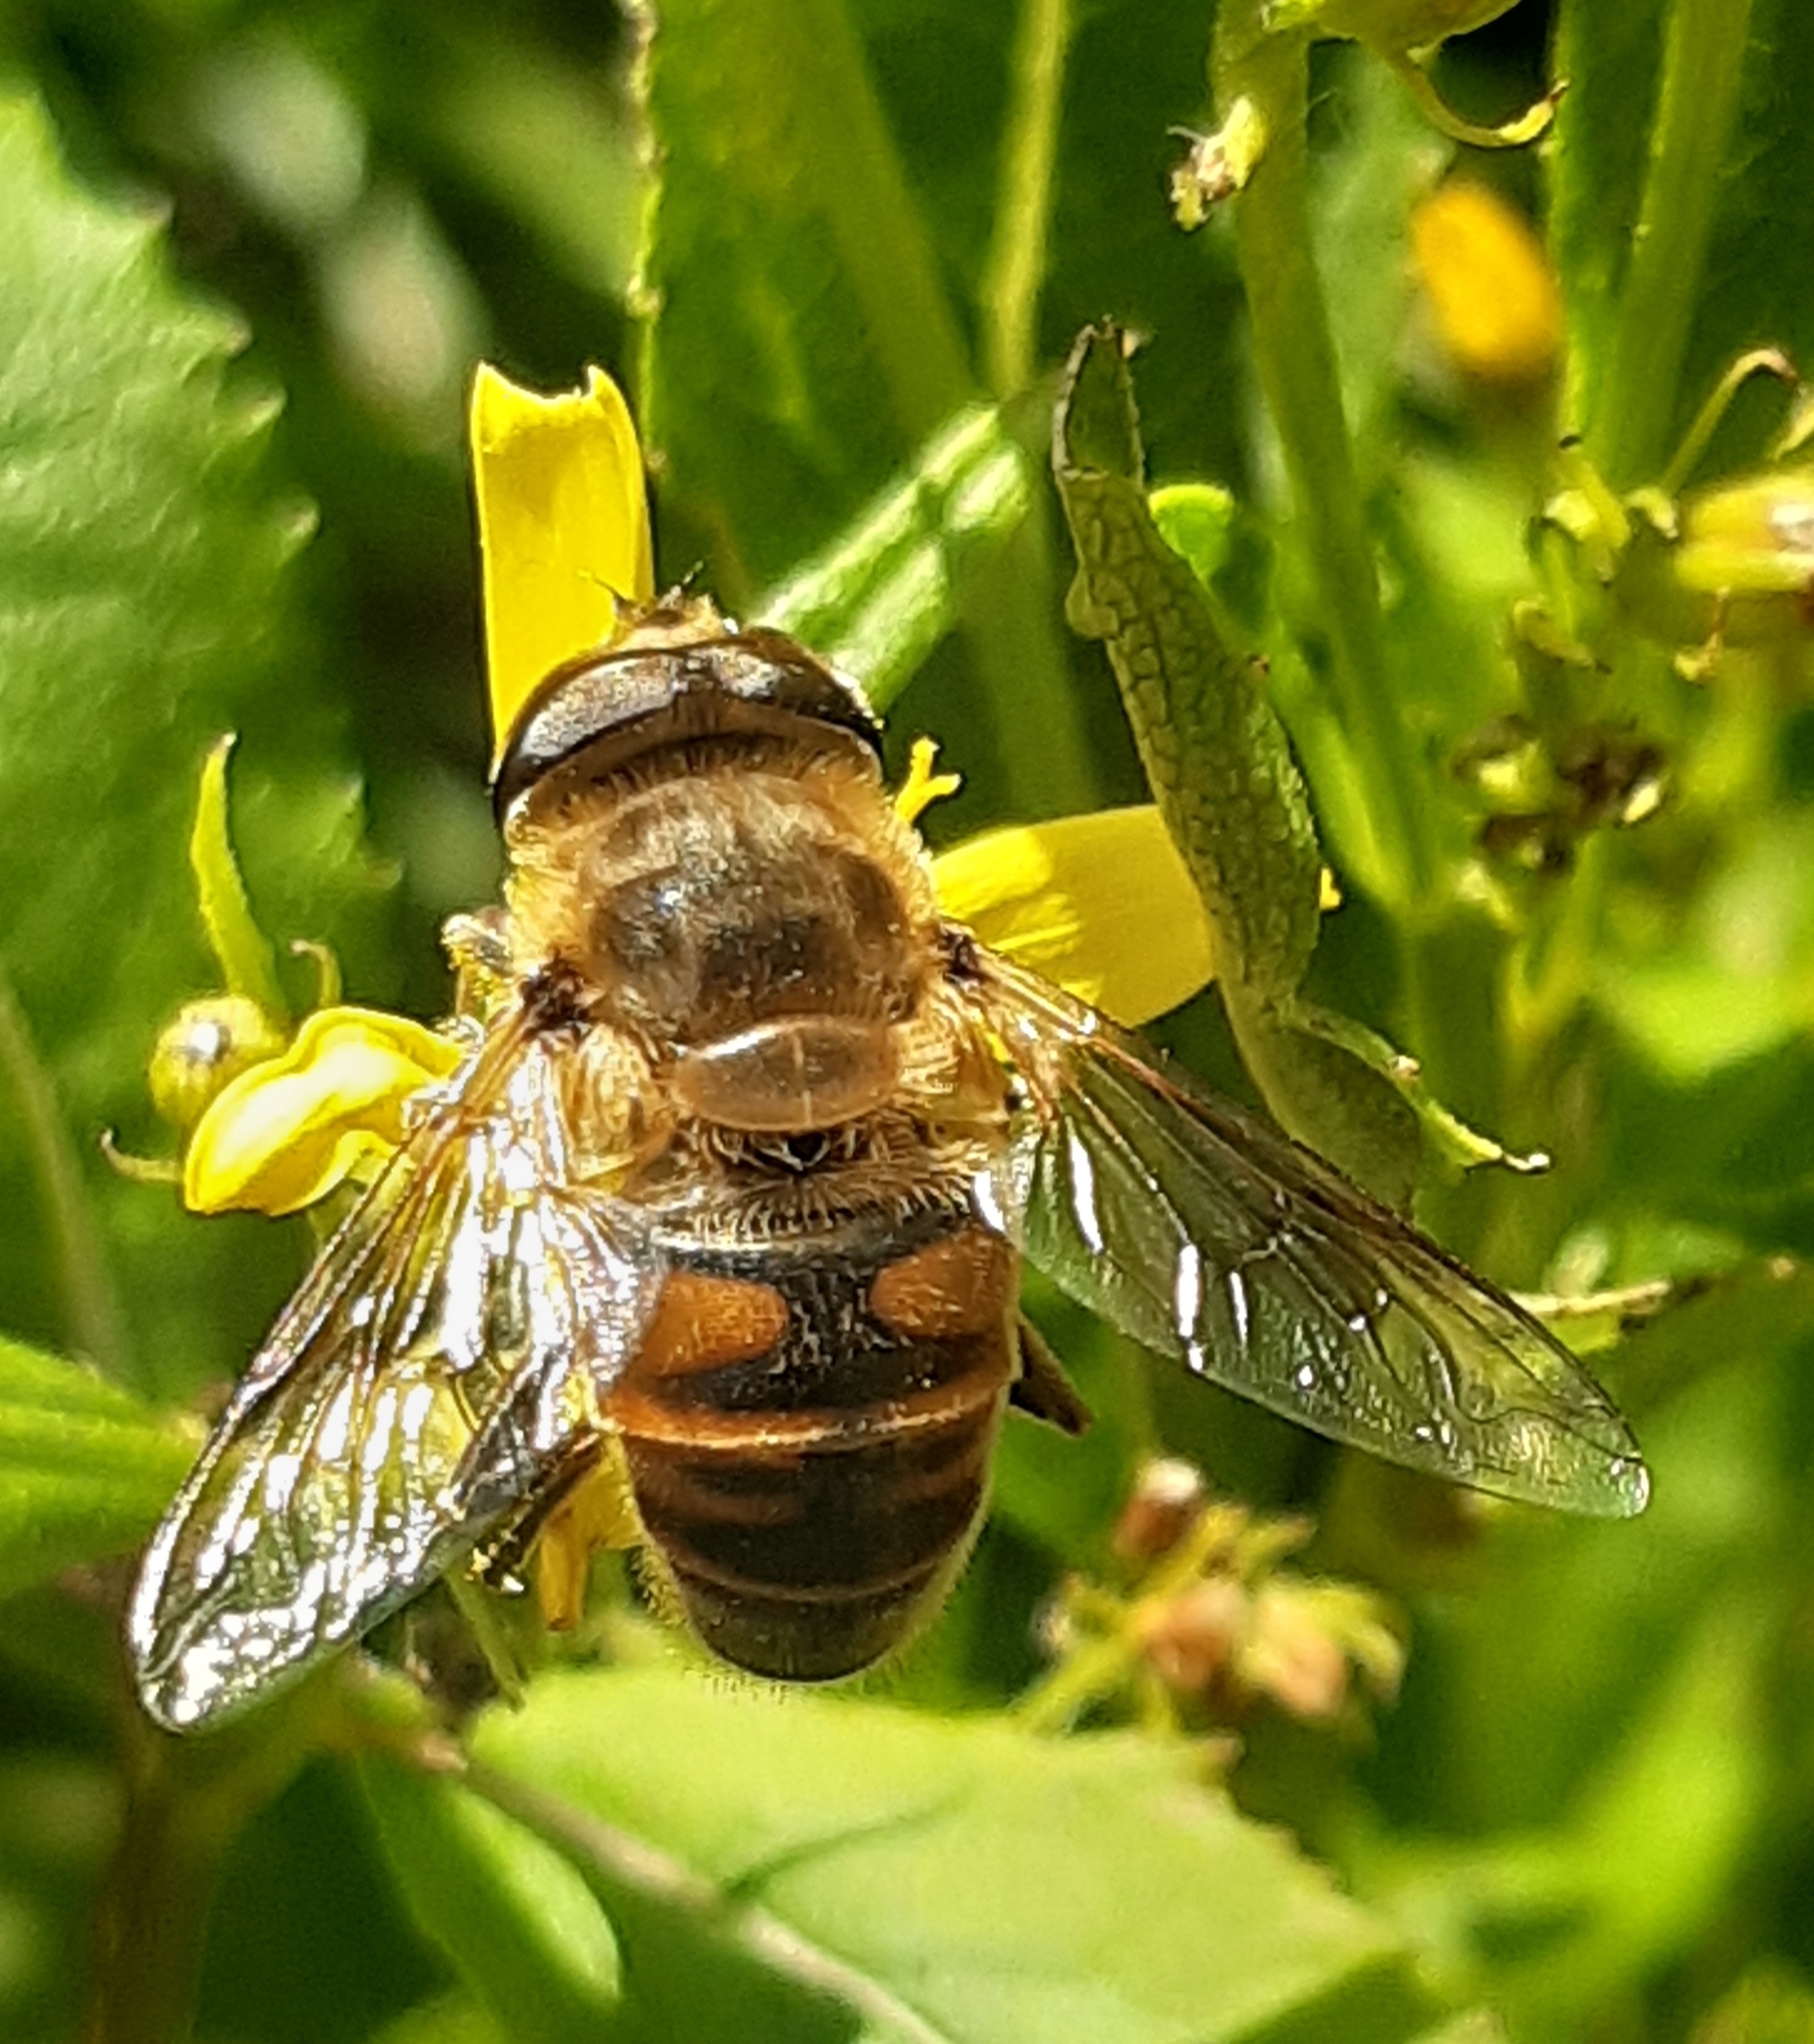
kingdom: Animalia
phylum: Arthropoda
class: Insecta
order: Diptera
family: Syrphidae
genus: Eristalis
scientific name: Eristalis tenax
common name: Drone fly
